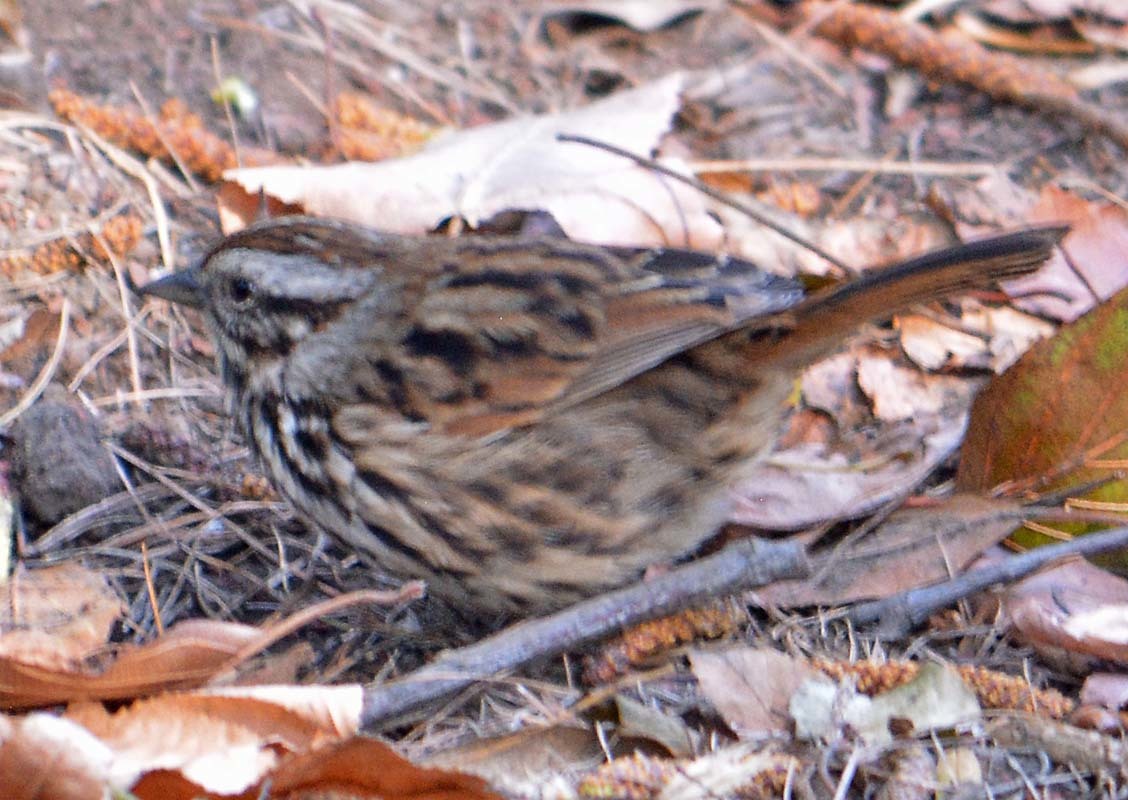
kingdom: Animalia
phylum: Chordata
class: Aves
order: Passeriformes
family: Passerellidae
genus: Melospiza
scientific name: Melospiza melodia
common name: Song sparrow
